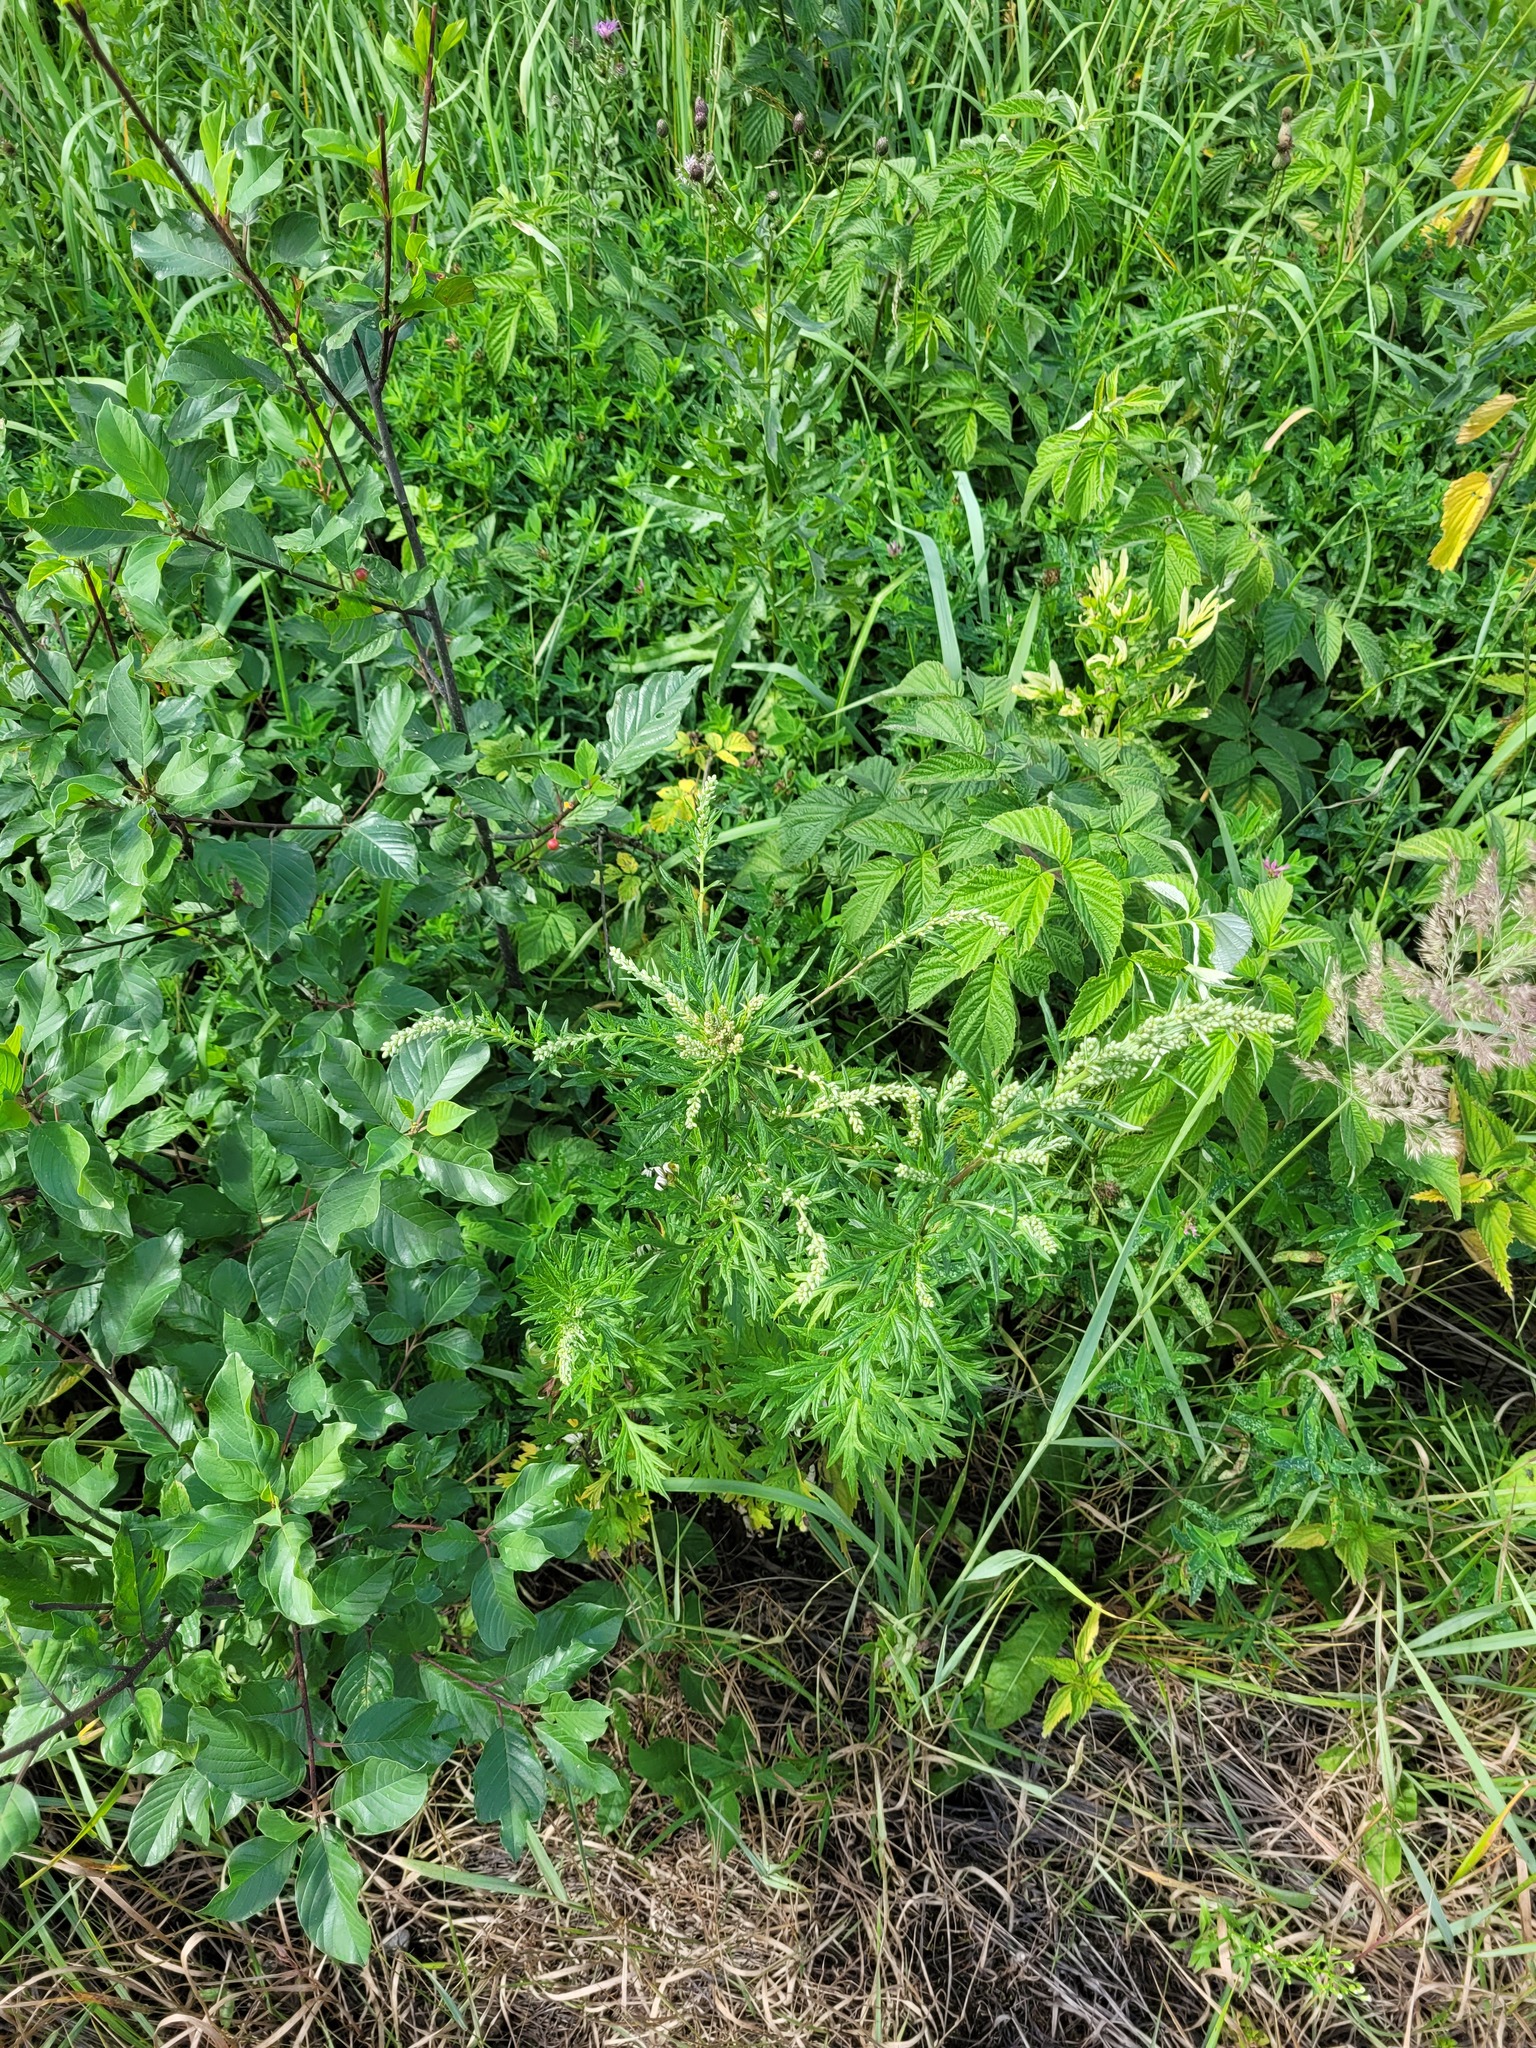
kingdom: Plantae
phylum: Tracheophyta
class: Magnoliopsida
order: Asterales
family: Asteraceae
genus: Artemisia
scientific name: Artemisia vulgaris
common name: Mugwort
